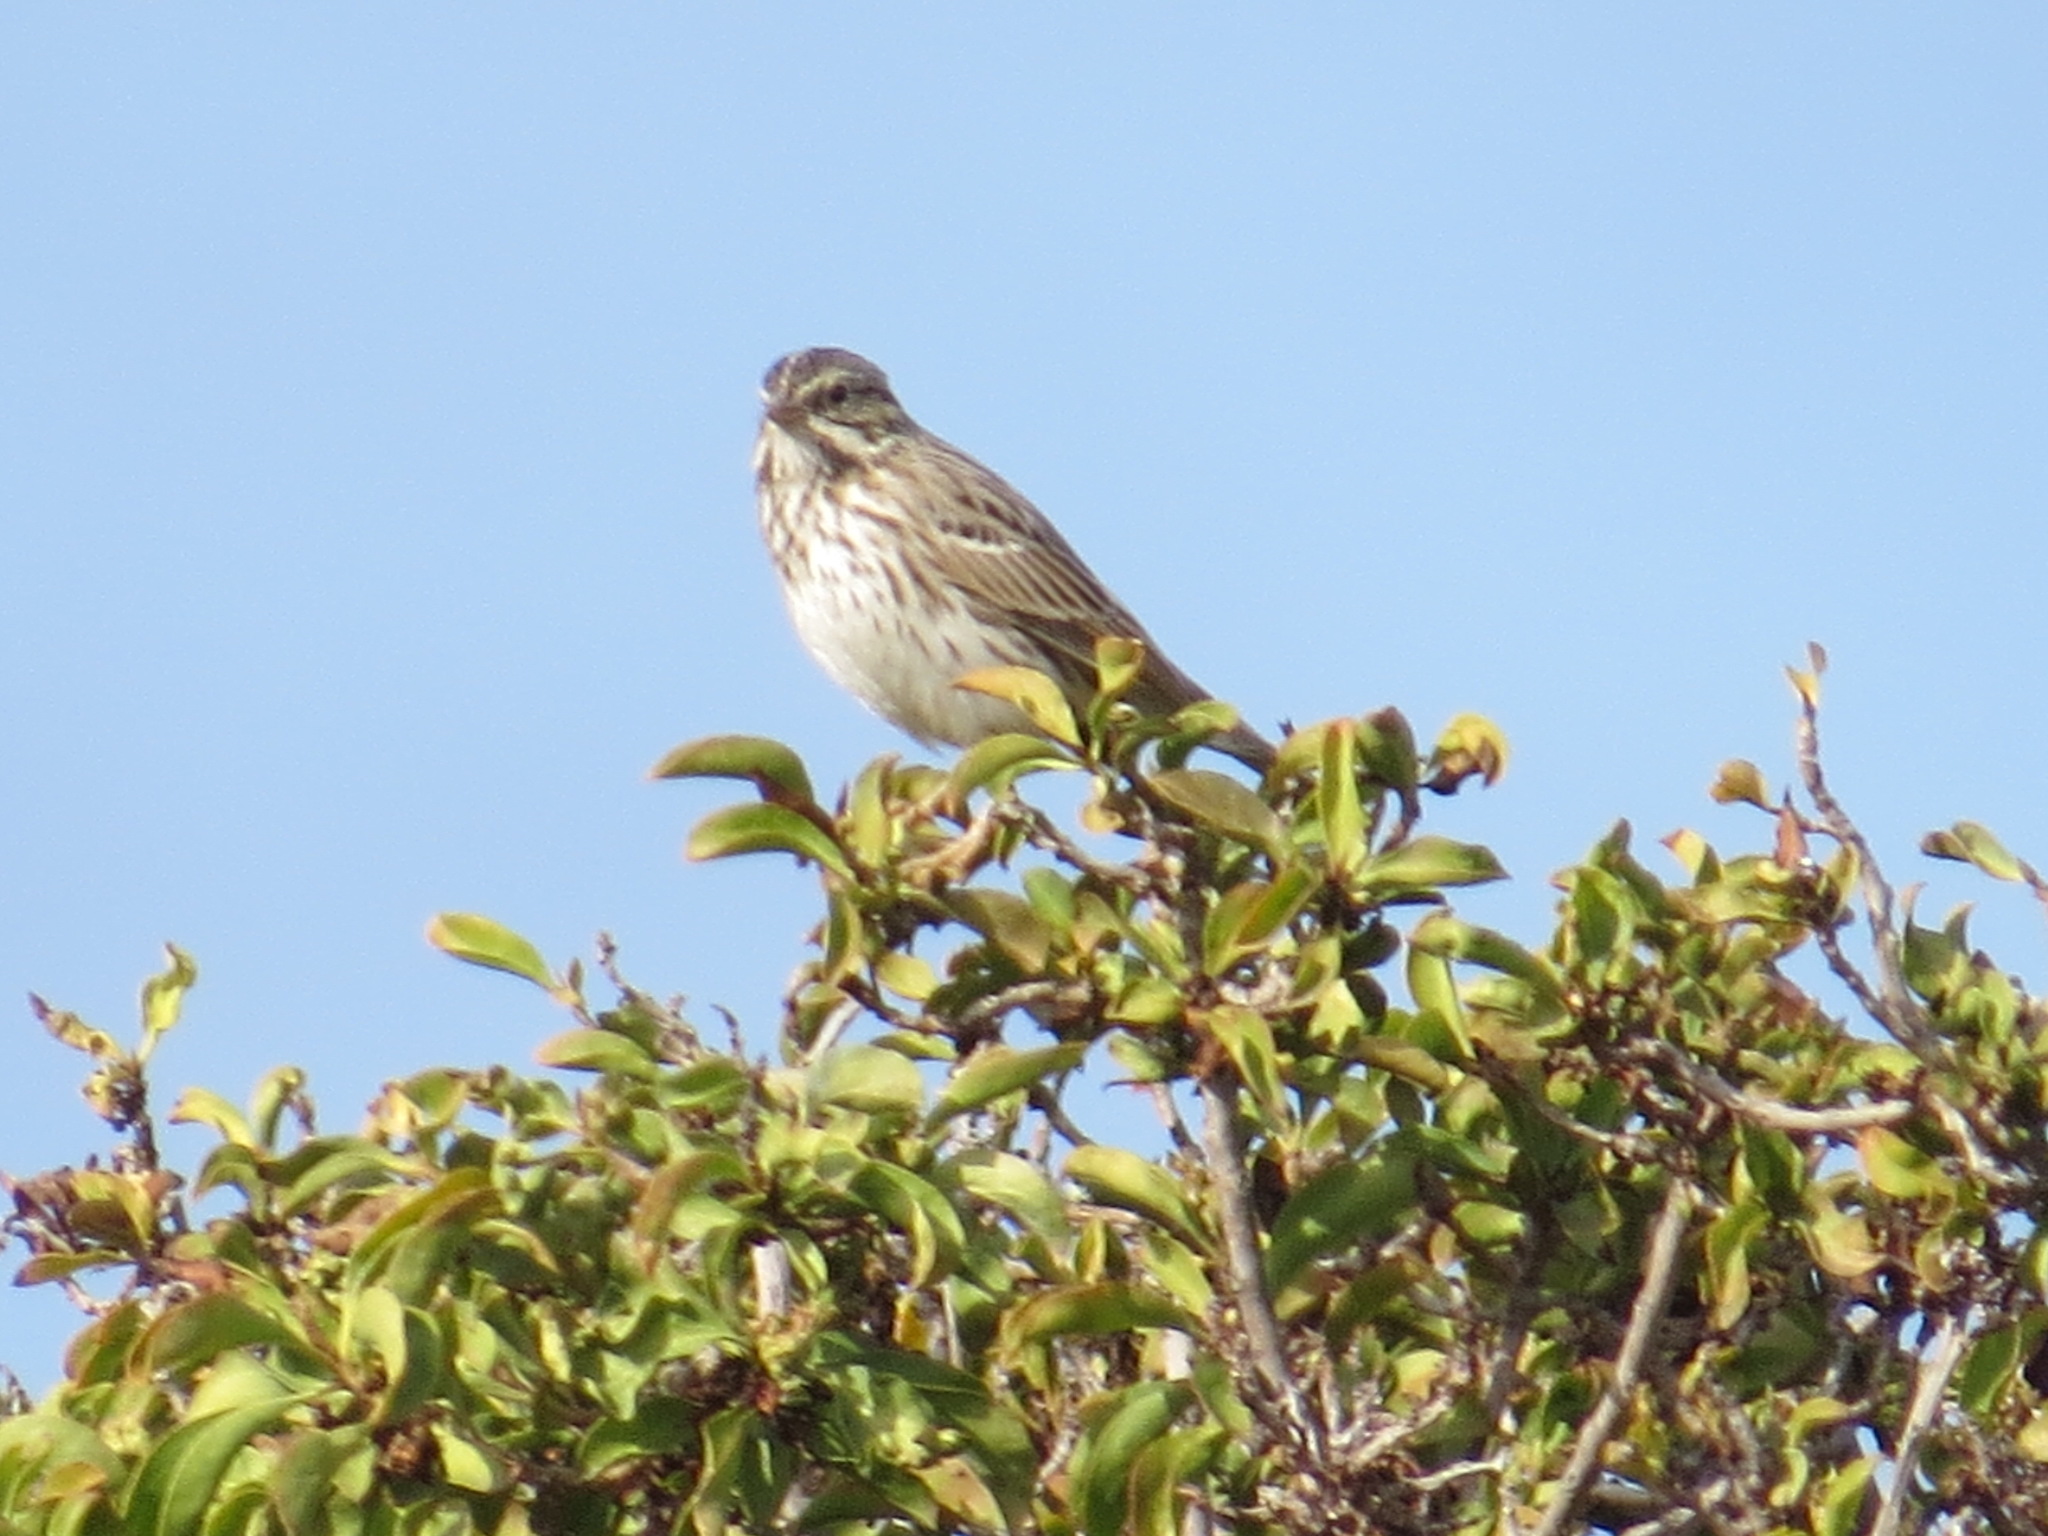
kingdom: Animalia
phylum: Chordata
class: Aves
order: Passeriformes
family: Passerellidae
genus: Passerculus
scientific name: Passerculus sandwichensis
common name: Savannah sparrow
